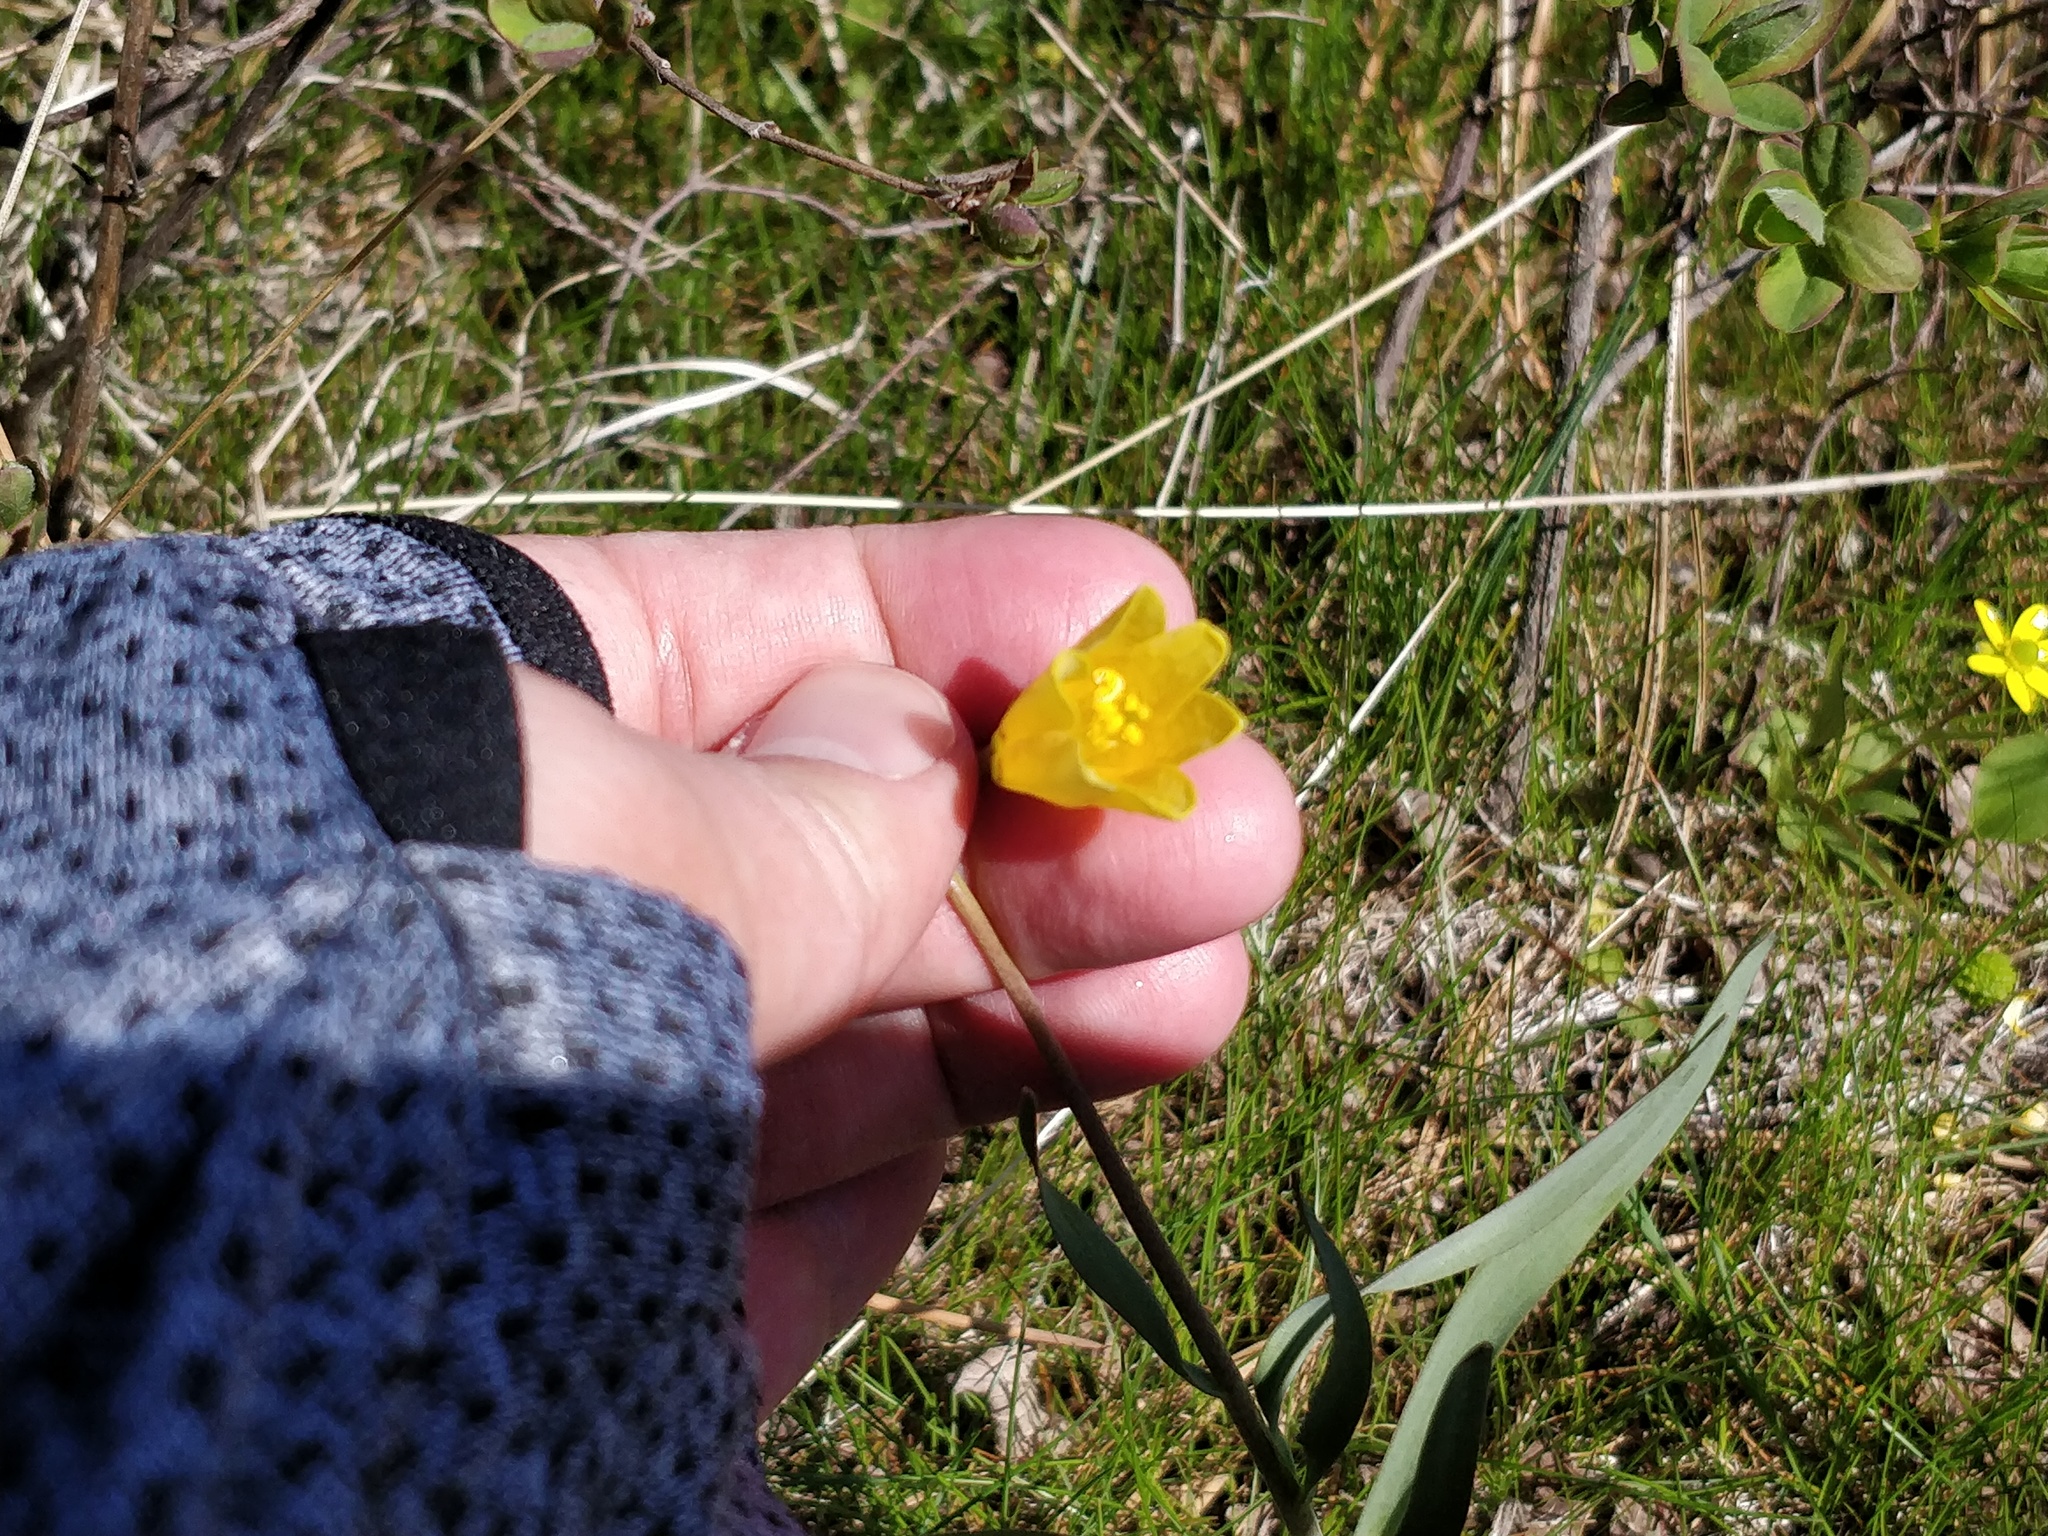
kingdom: Plantae
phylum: Tracheophyta
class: Liliopsida
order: Liliales
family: Liliaceae
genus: Fritillaria
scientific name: Fritillaria pudica
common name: Yellow fritillary
